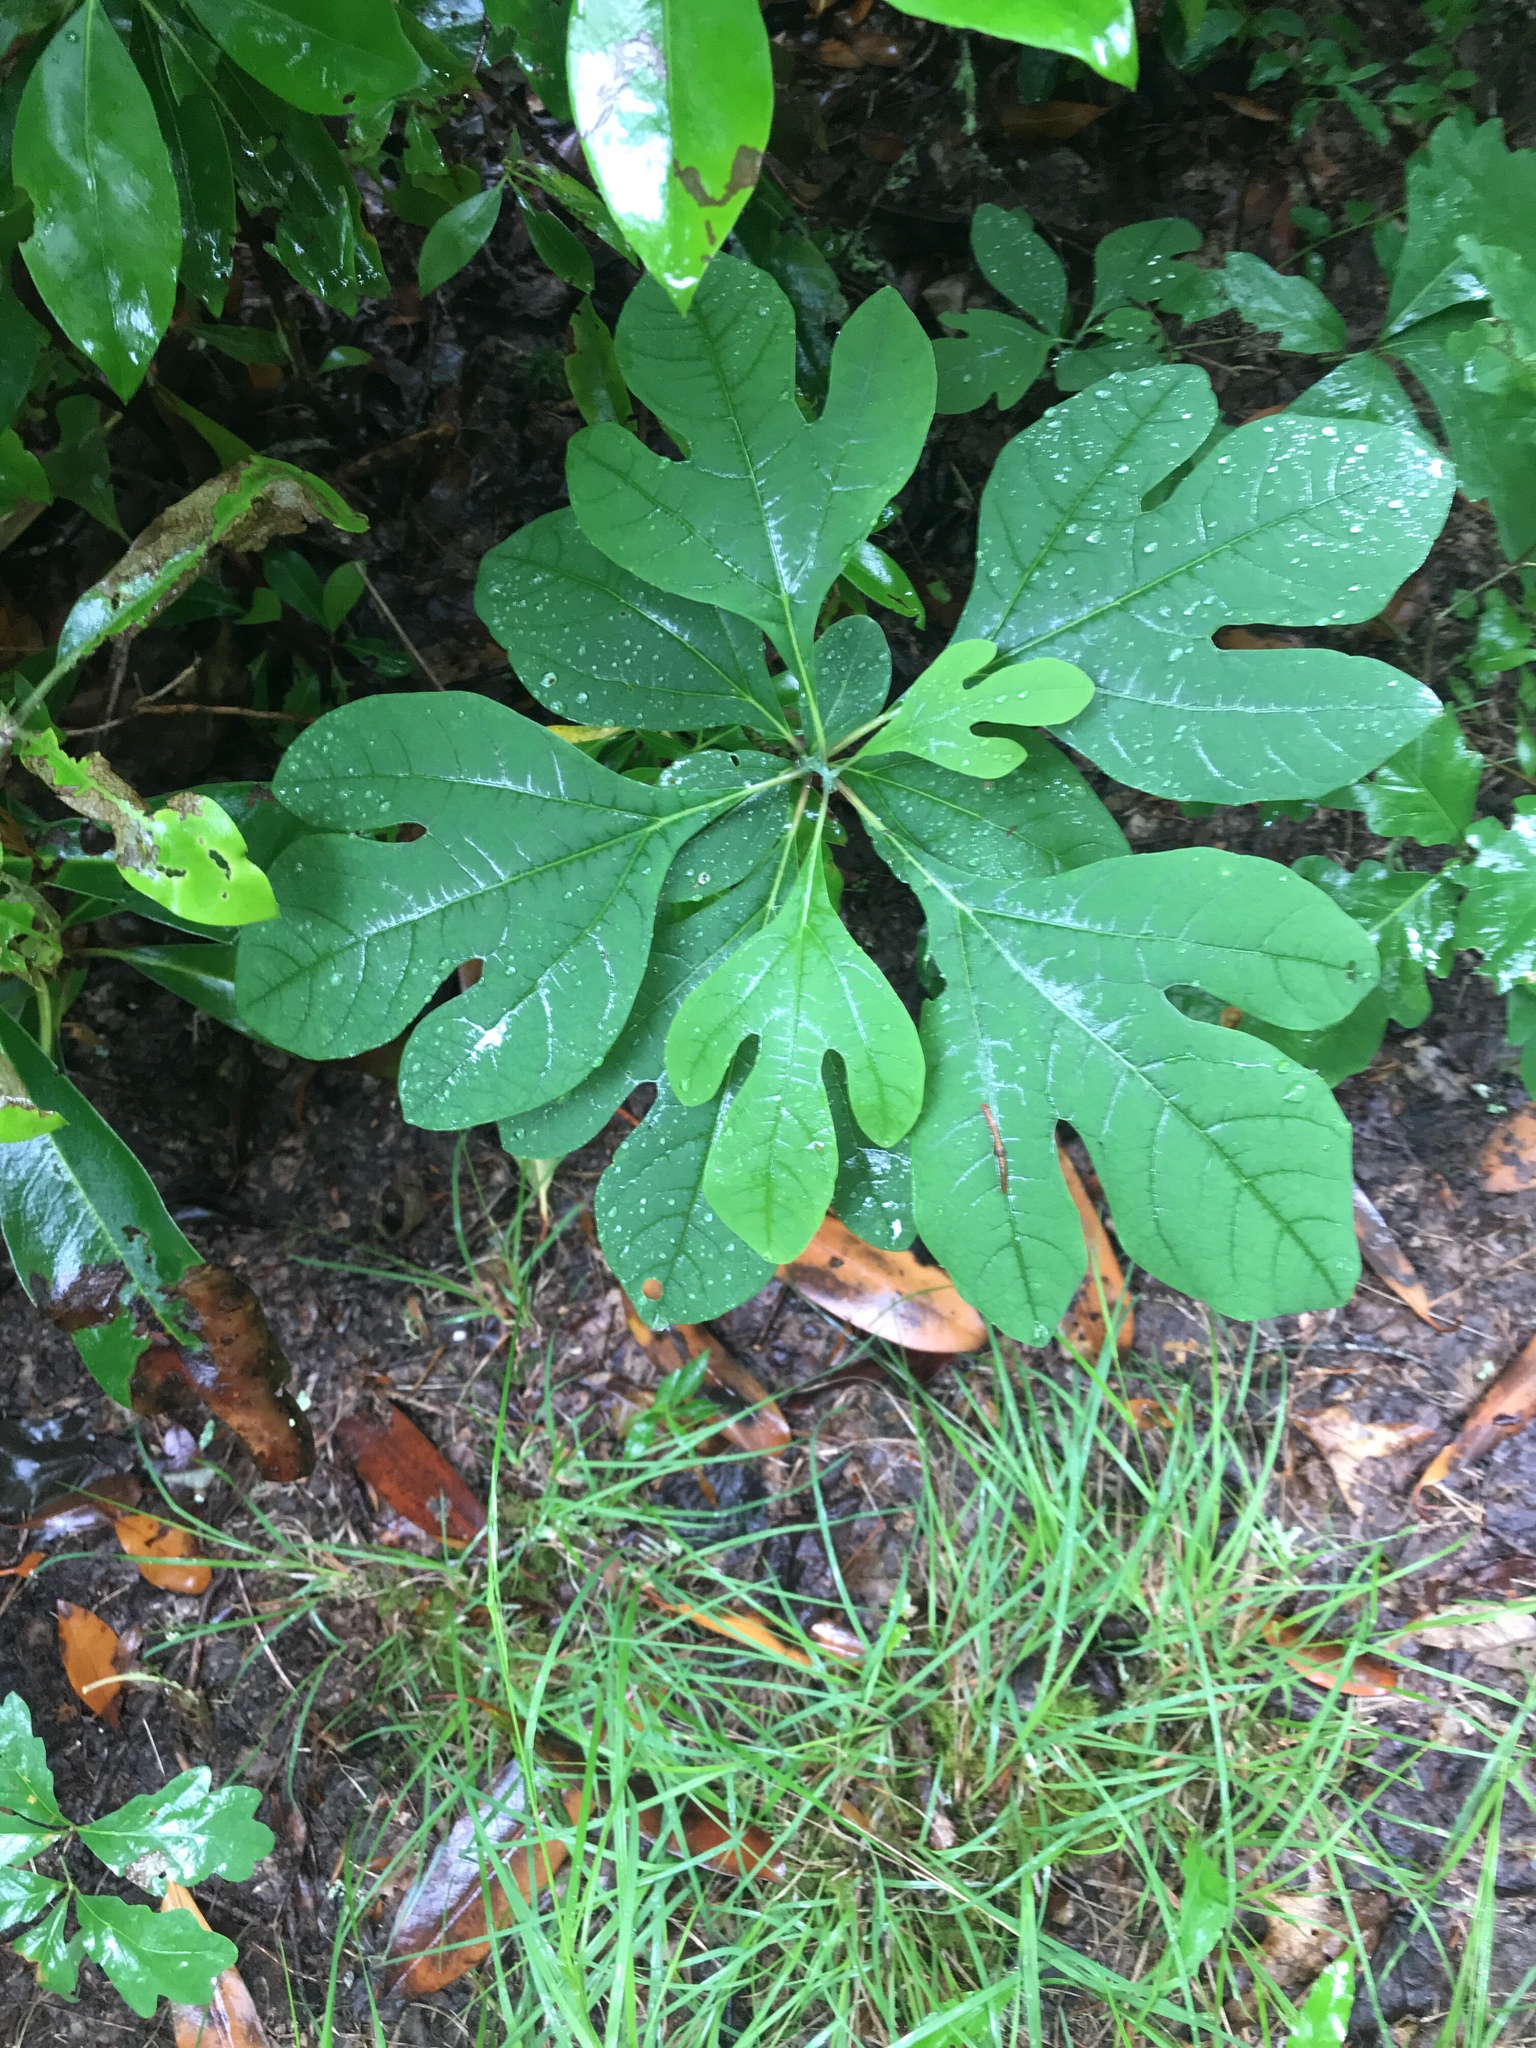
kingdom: Plantae
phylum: Tracheophyta
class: Magnoliopsida
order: Laurales
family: Lauraceae
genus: Sassafras
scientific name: Sassafras albidum
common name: Sassafras
